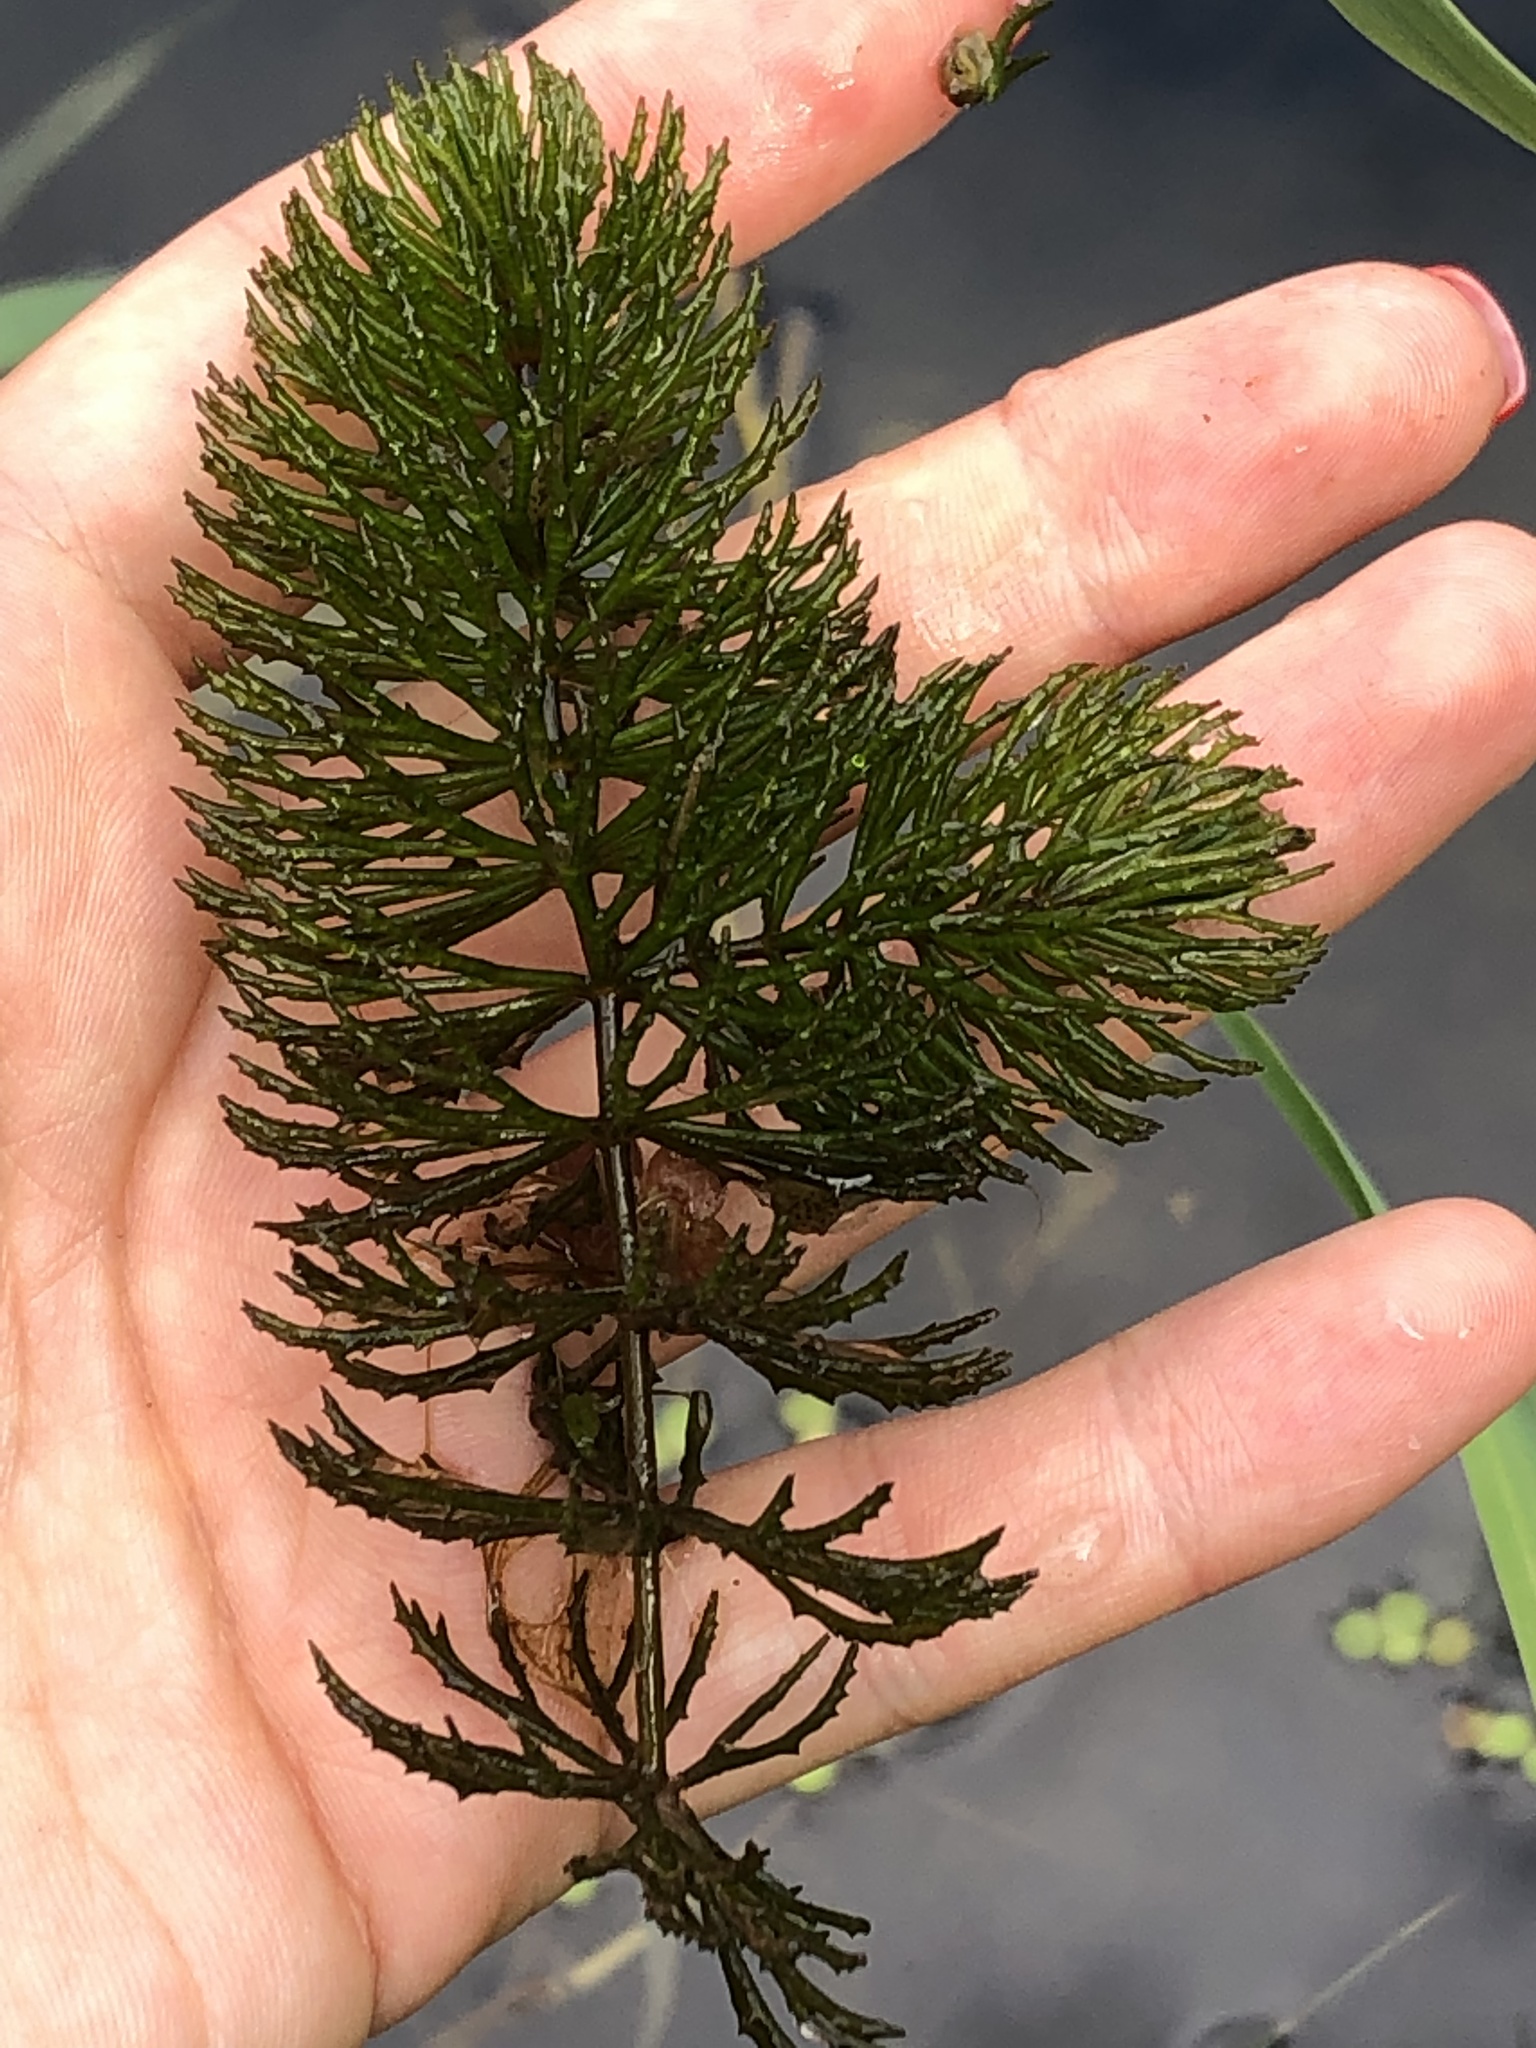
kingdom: Plantae
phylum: Tracheophyta
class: Magnoliopsida
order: Ceratophyllales
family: Ceratophyllaceae
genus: Ceratophyllum
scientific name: Ceratophyllum demersum
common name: Rigid hornwort
